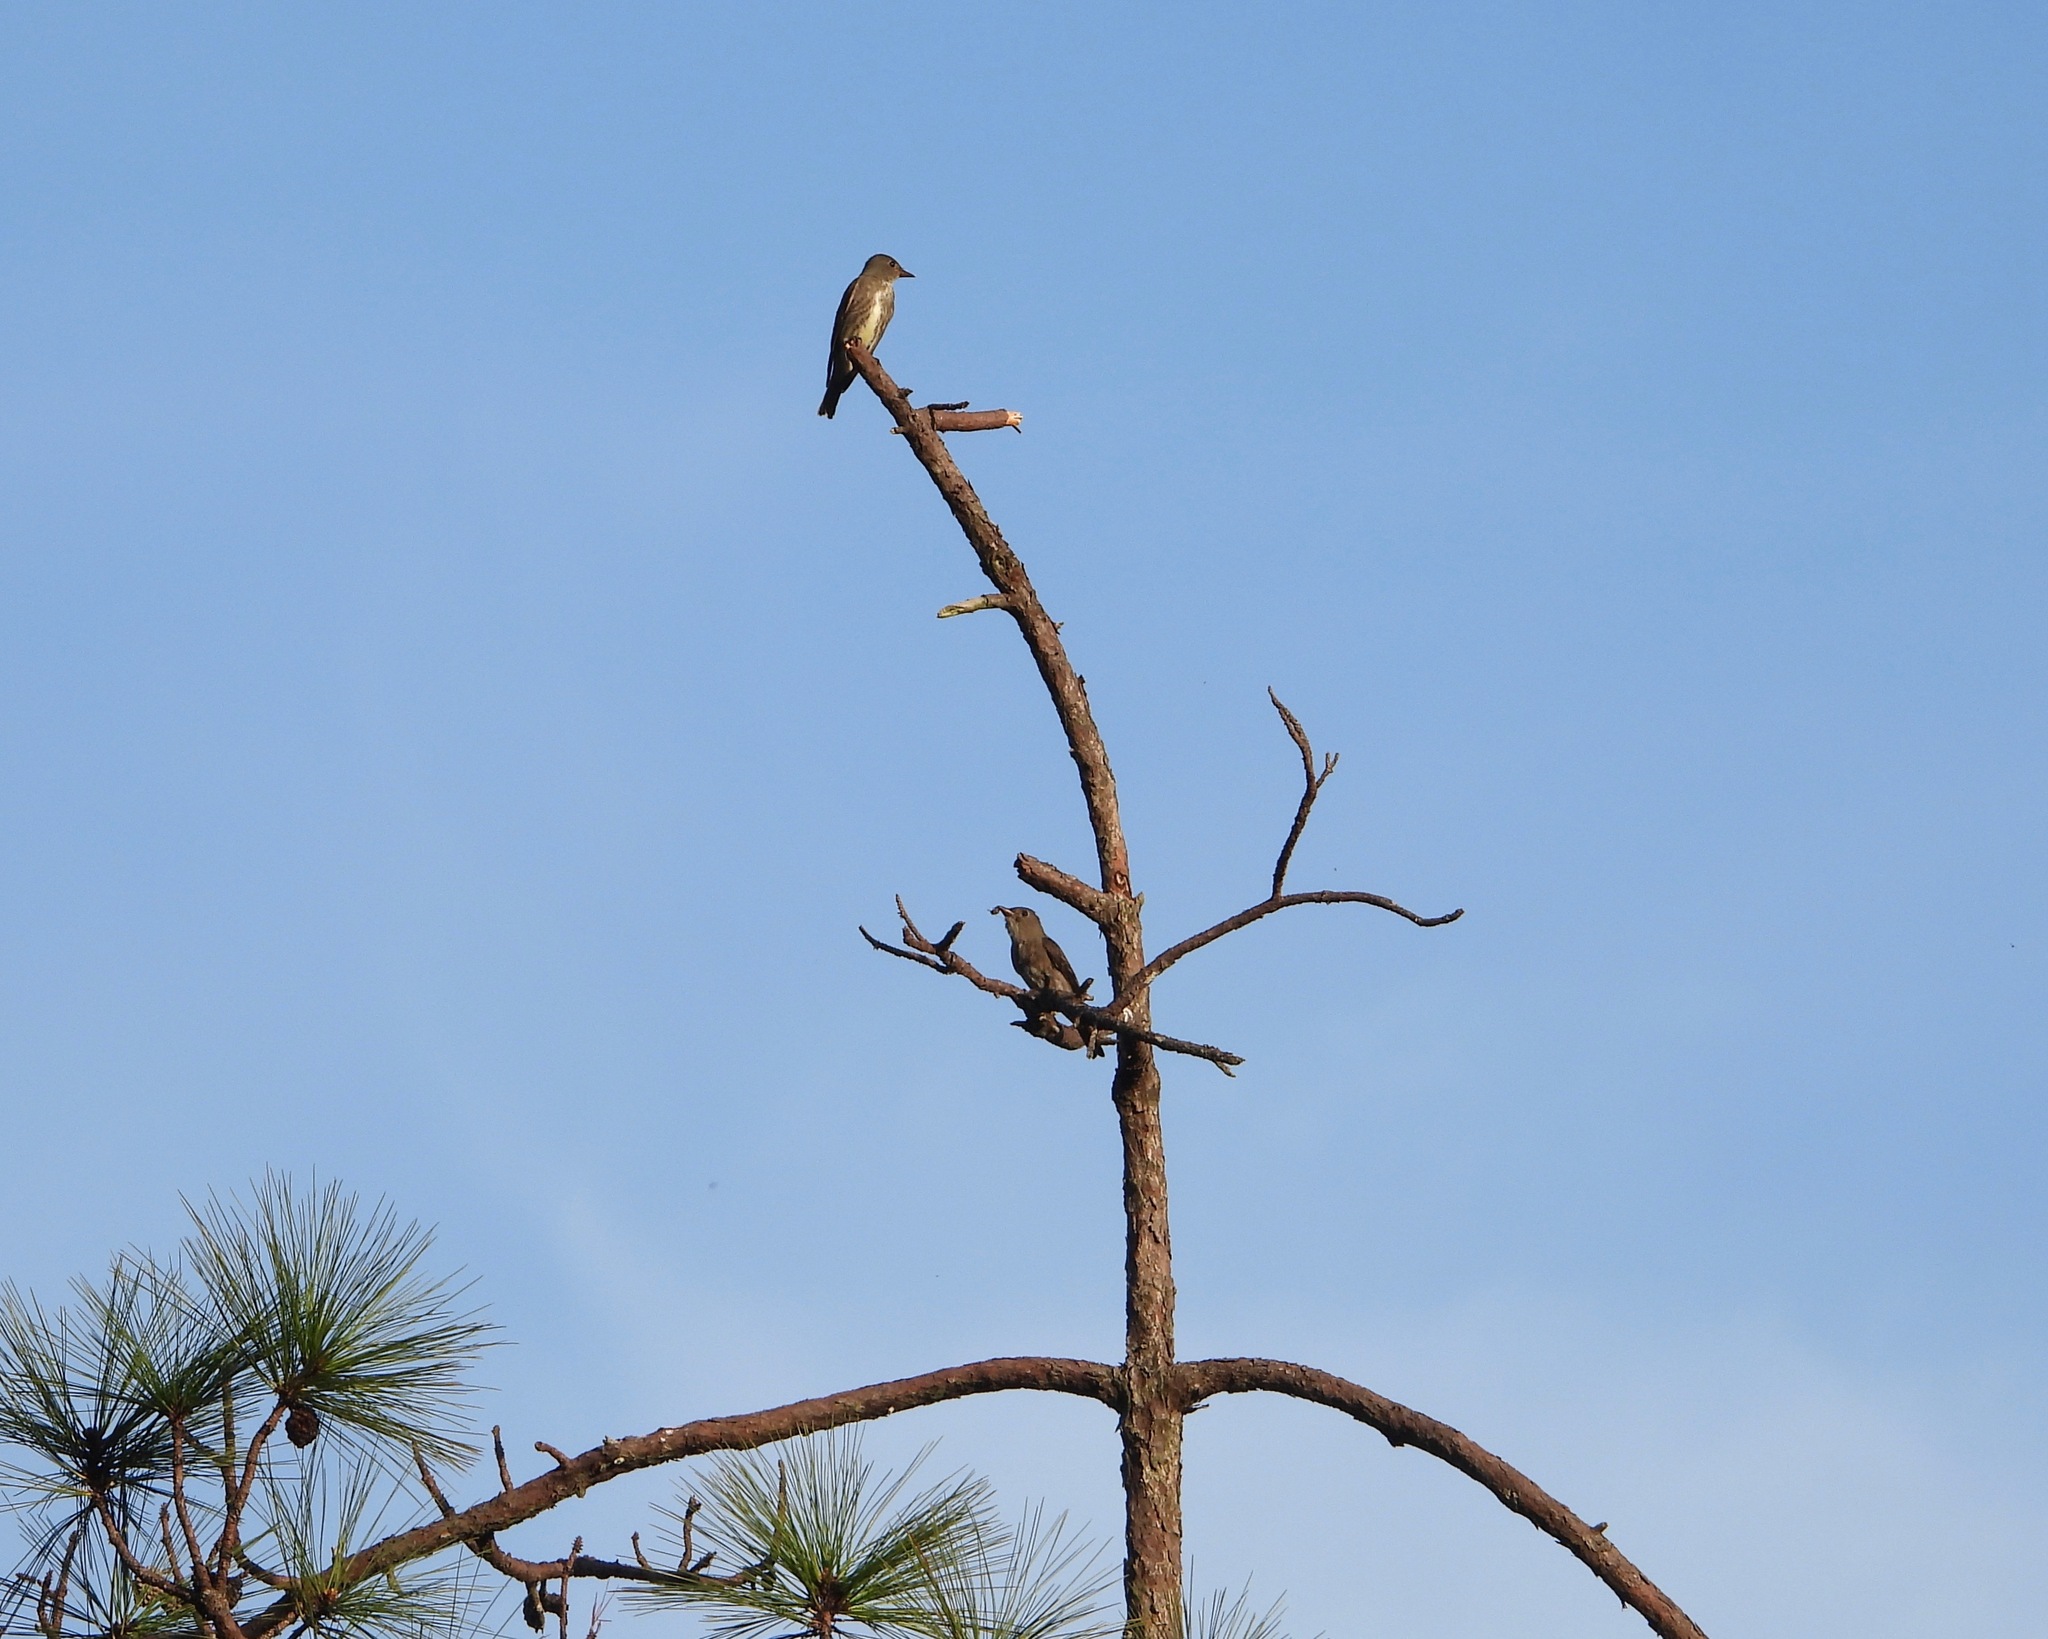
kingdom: Animalia
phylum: Chordata
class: Aves
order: Passeriformes
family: Tyrannidae
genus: Contopus
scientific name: Contopus cooperi
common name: Olive-sided flycatcher
